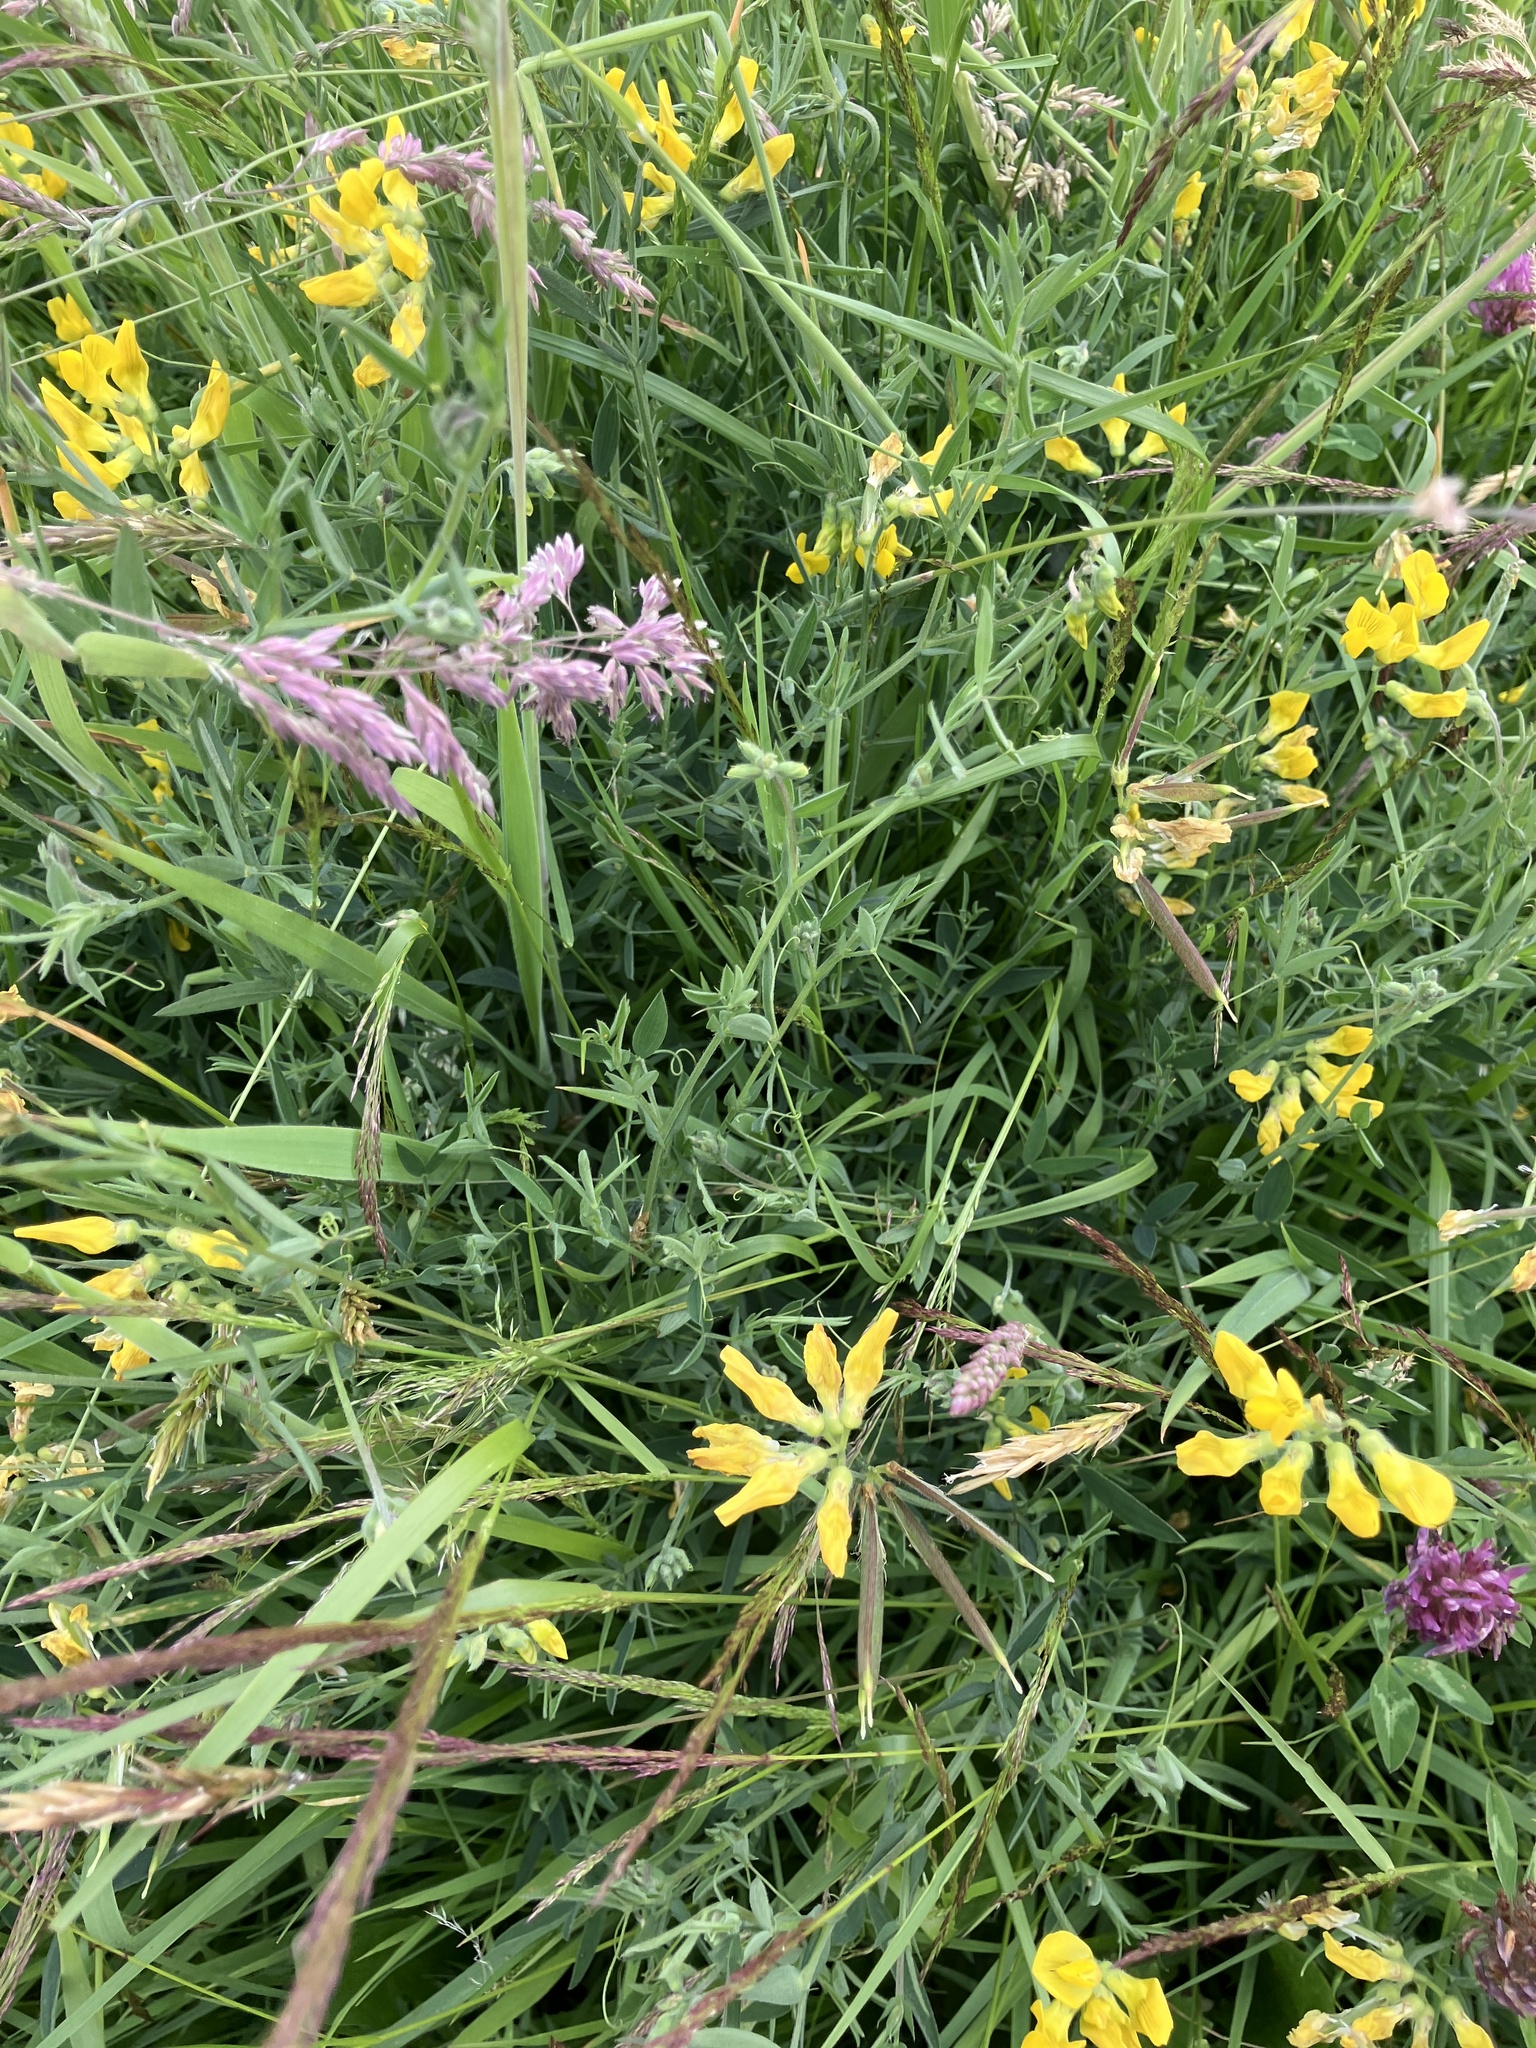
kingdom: Plantae
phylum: Tracheophyta
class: Magnoliopsida
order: Fabales
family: Fabaceae
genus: Lathyrus
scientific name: Lathyrus pratensis
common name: Meadow vetchling
